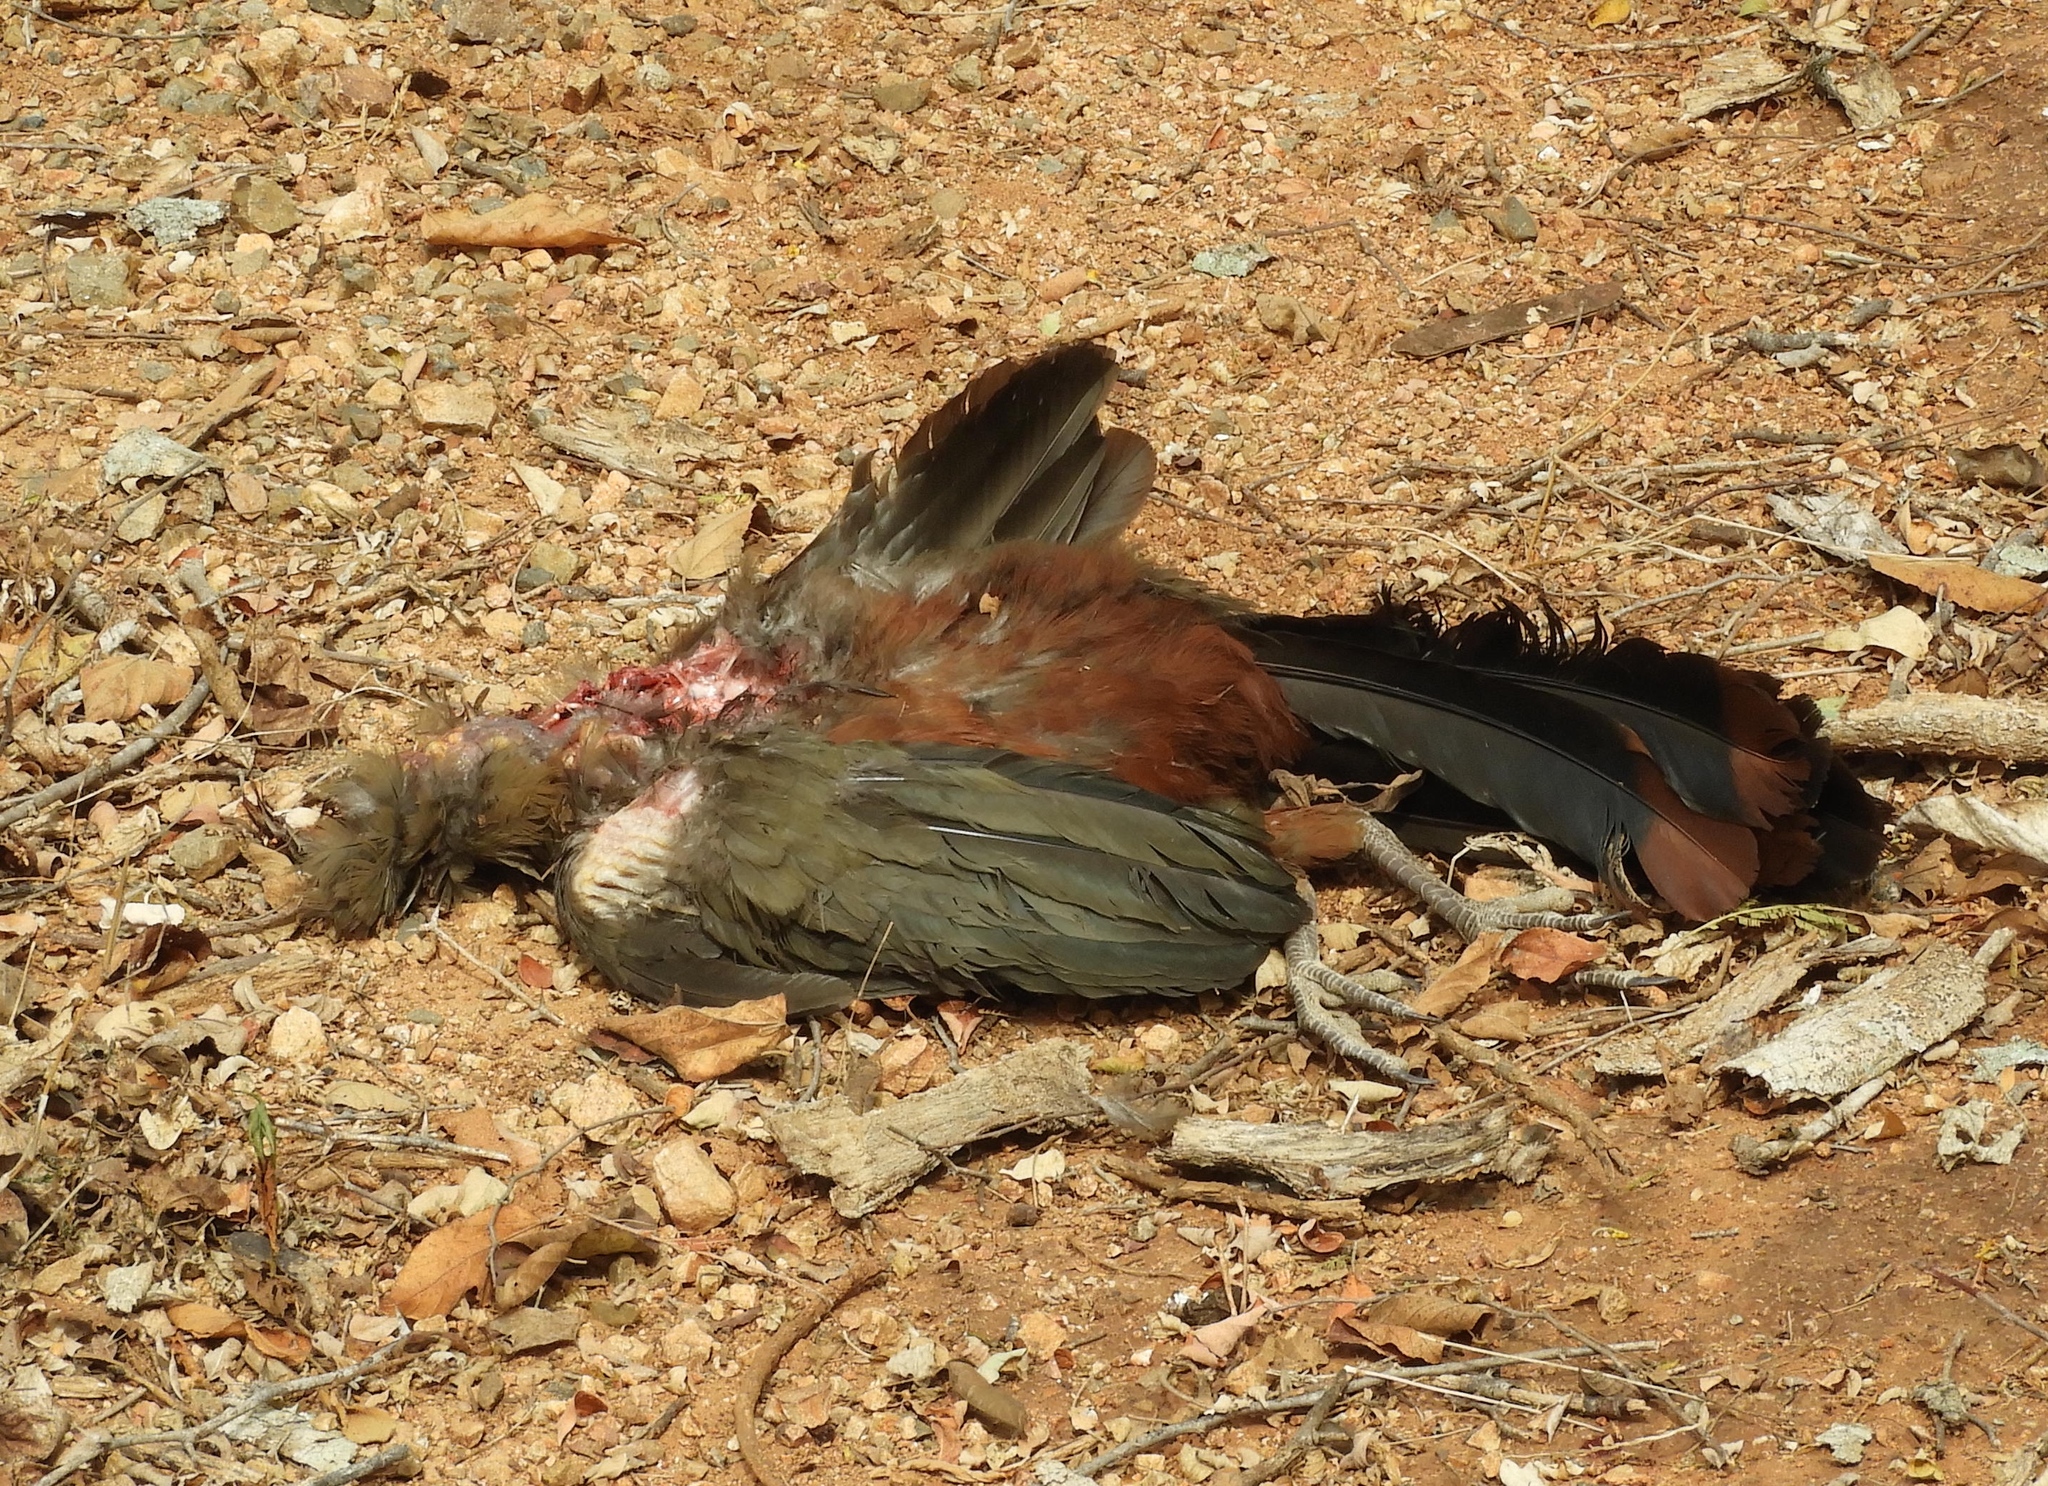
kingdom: Animalia
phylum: Chordata
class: Aves
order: Galliformes
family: Cracidae
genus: Ortalis
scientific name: Ortalis wagleri
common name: Rufous-bellied chachalaca
